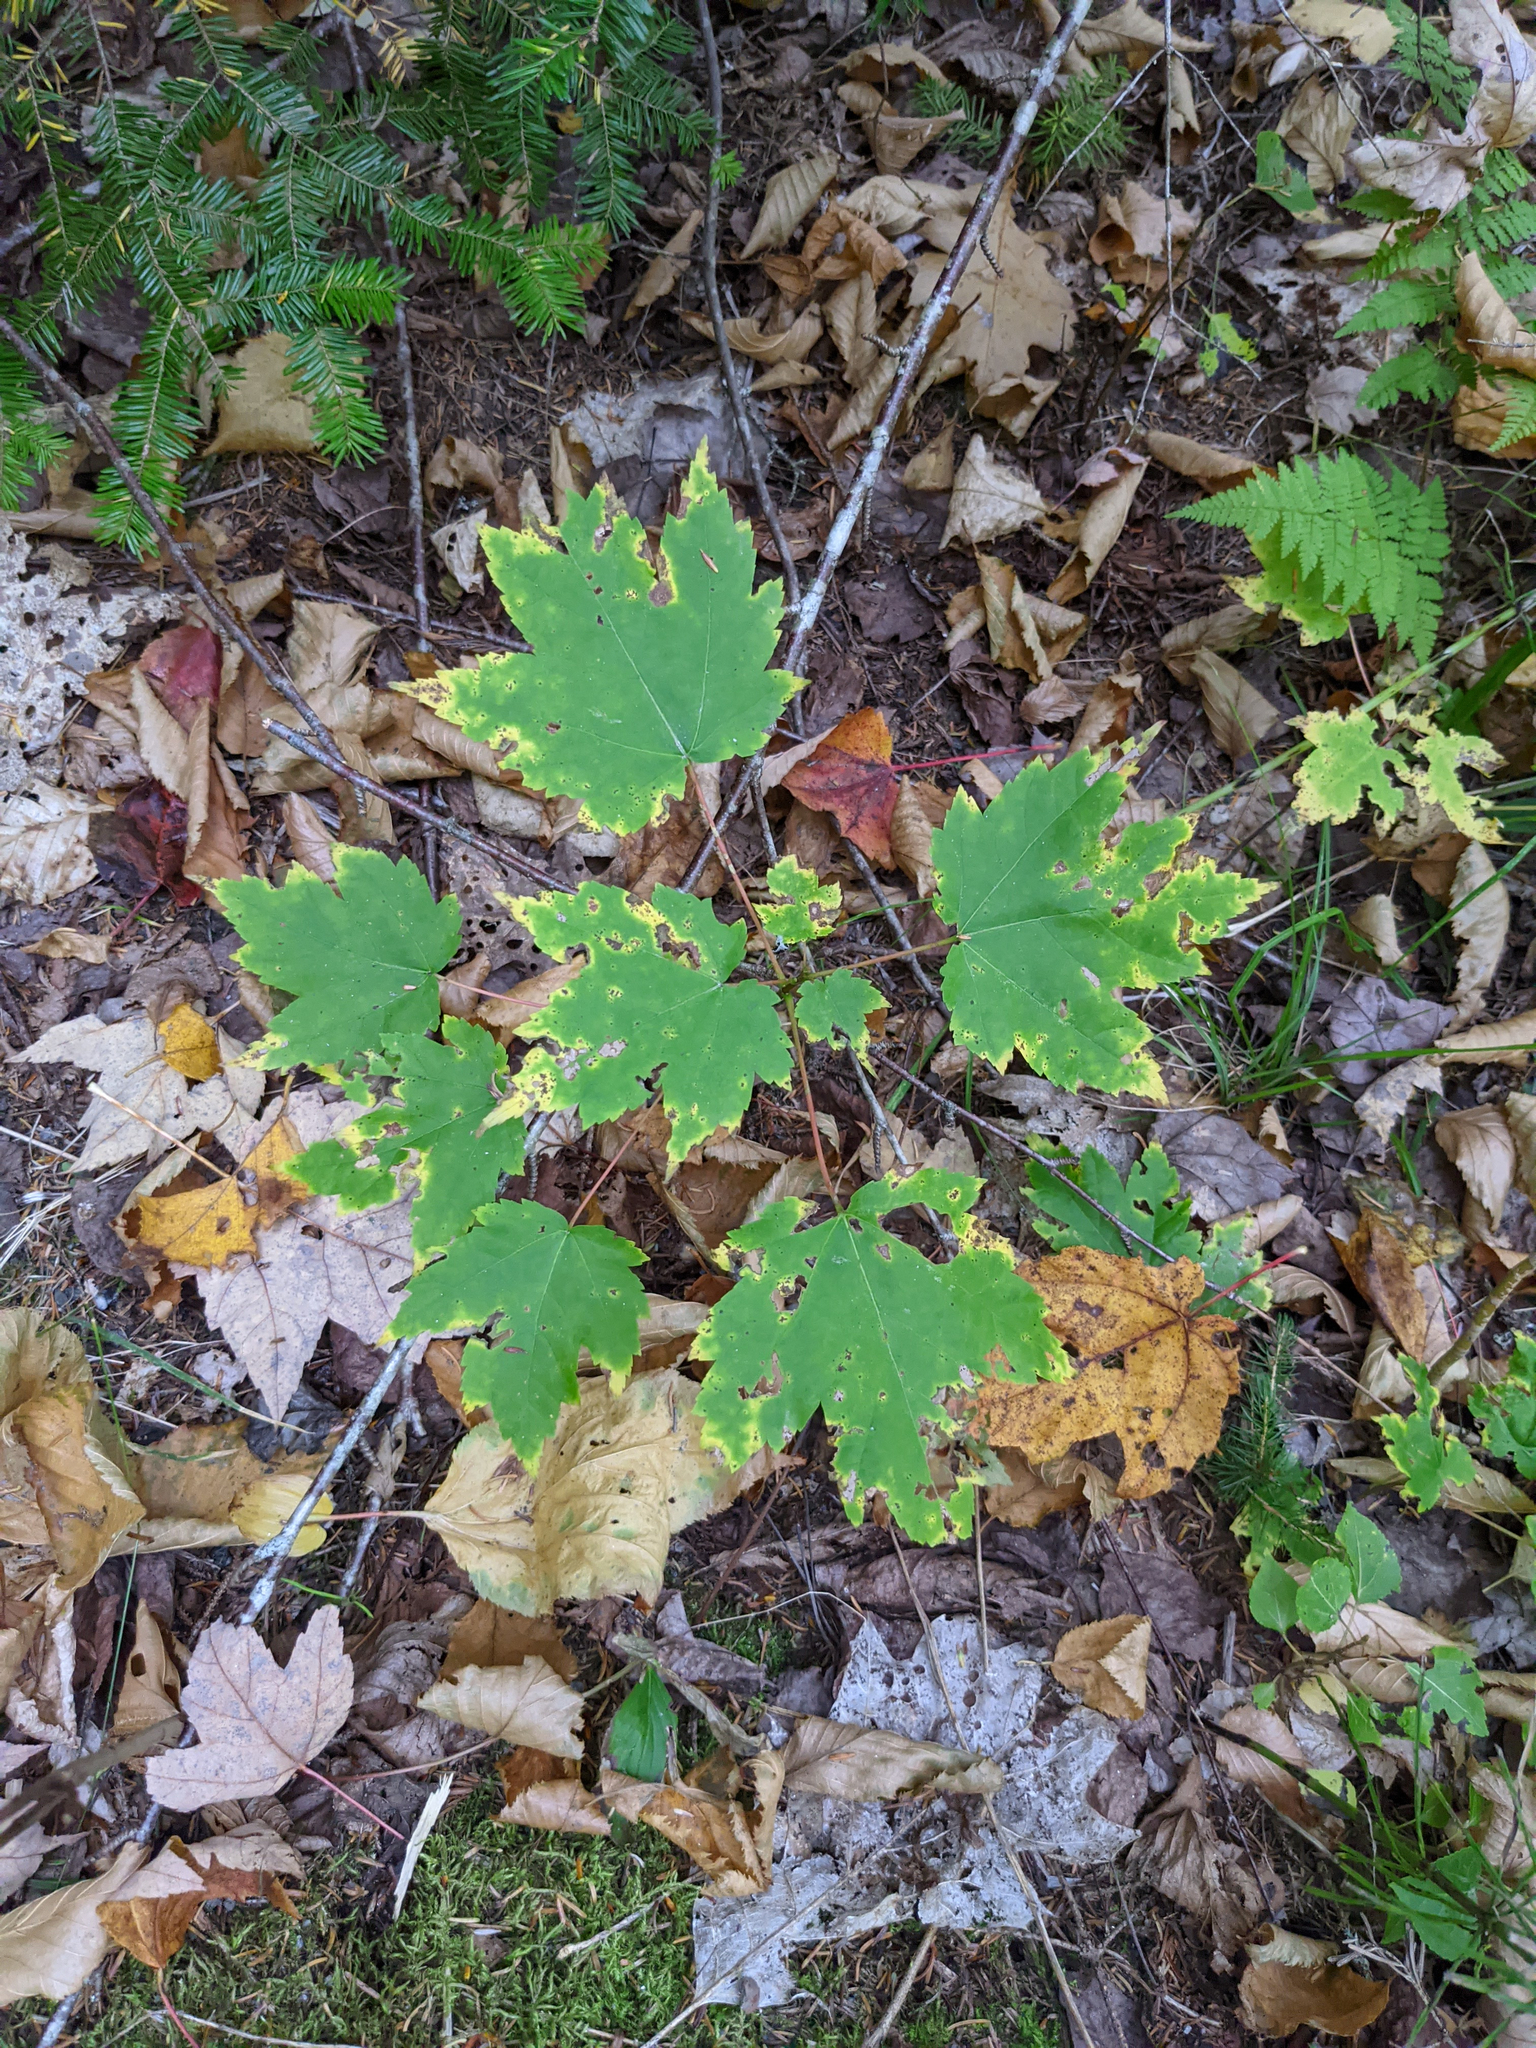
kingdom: Plantae
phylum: Tracheophyta
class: Magnoliopsida
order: Sapindales
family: Sapindaceae
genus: Acer
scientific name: Acer rubrum
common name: Red maple
